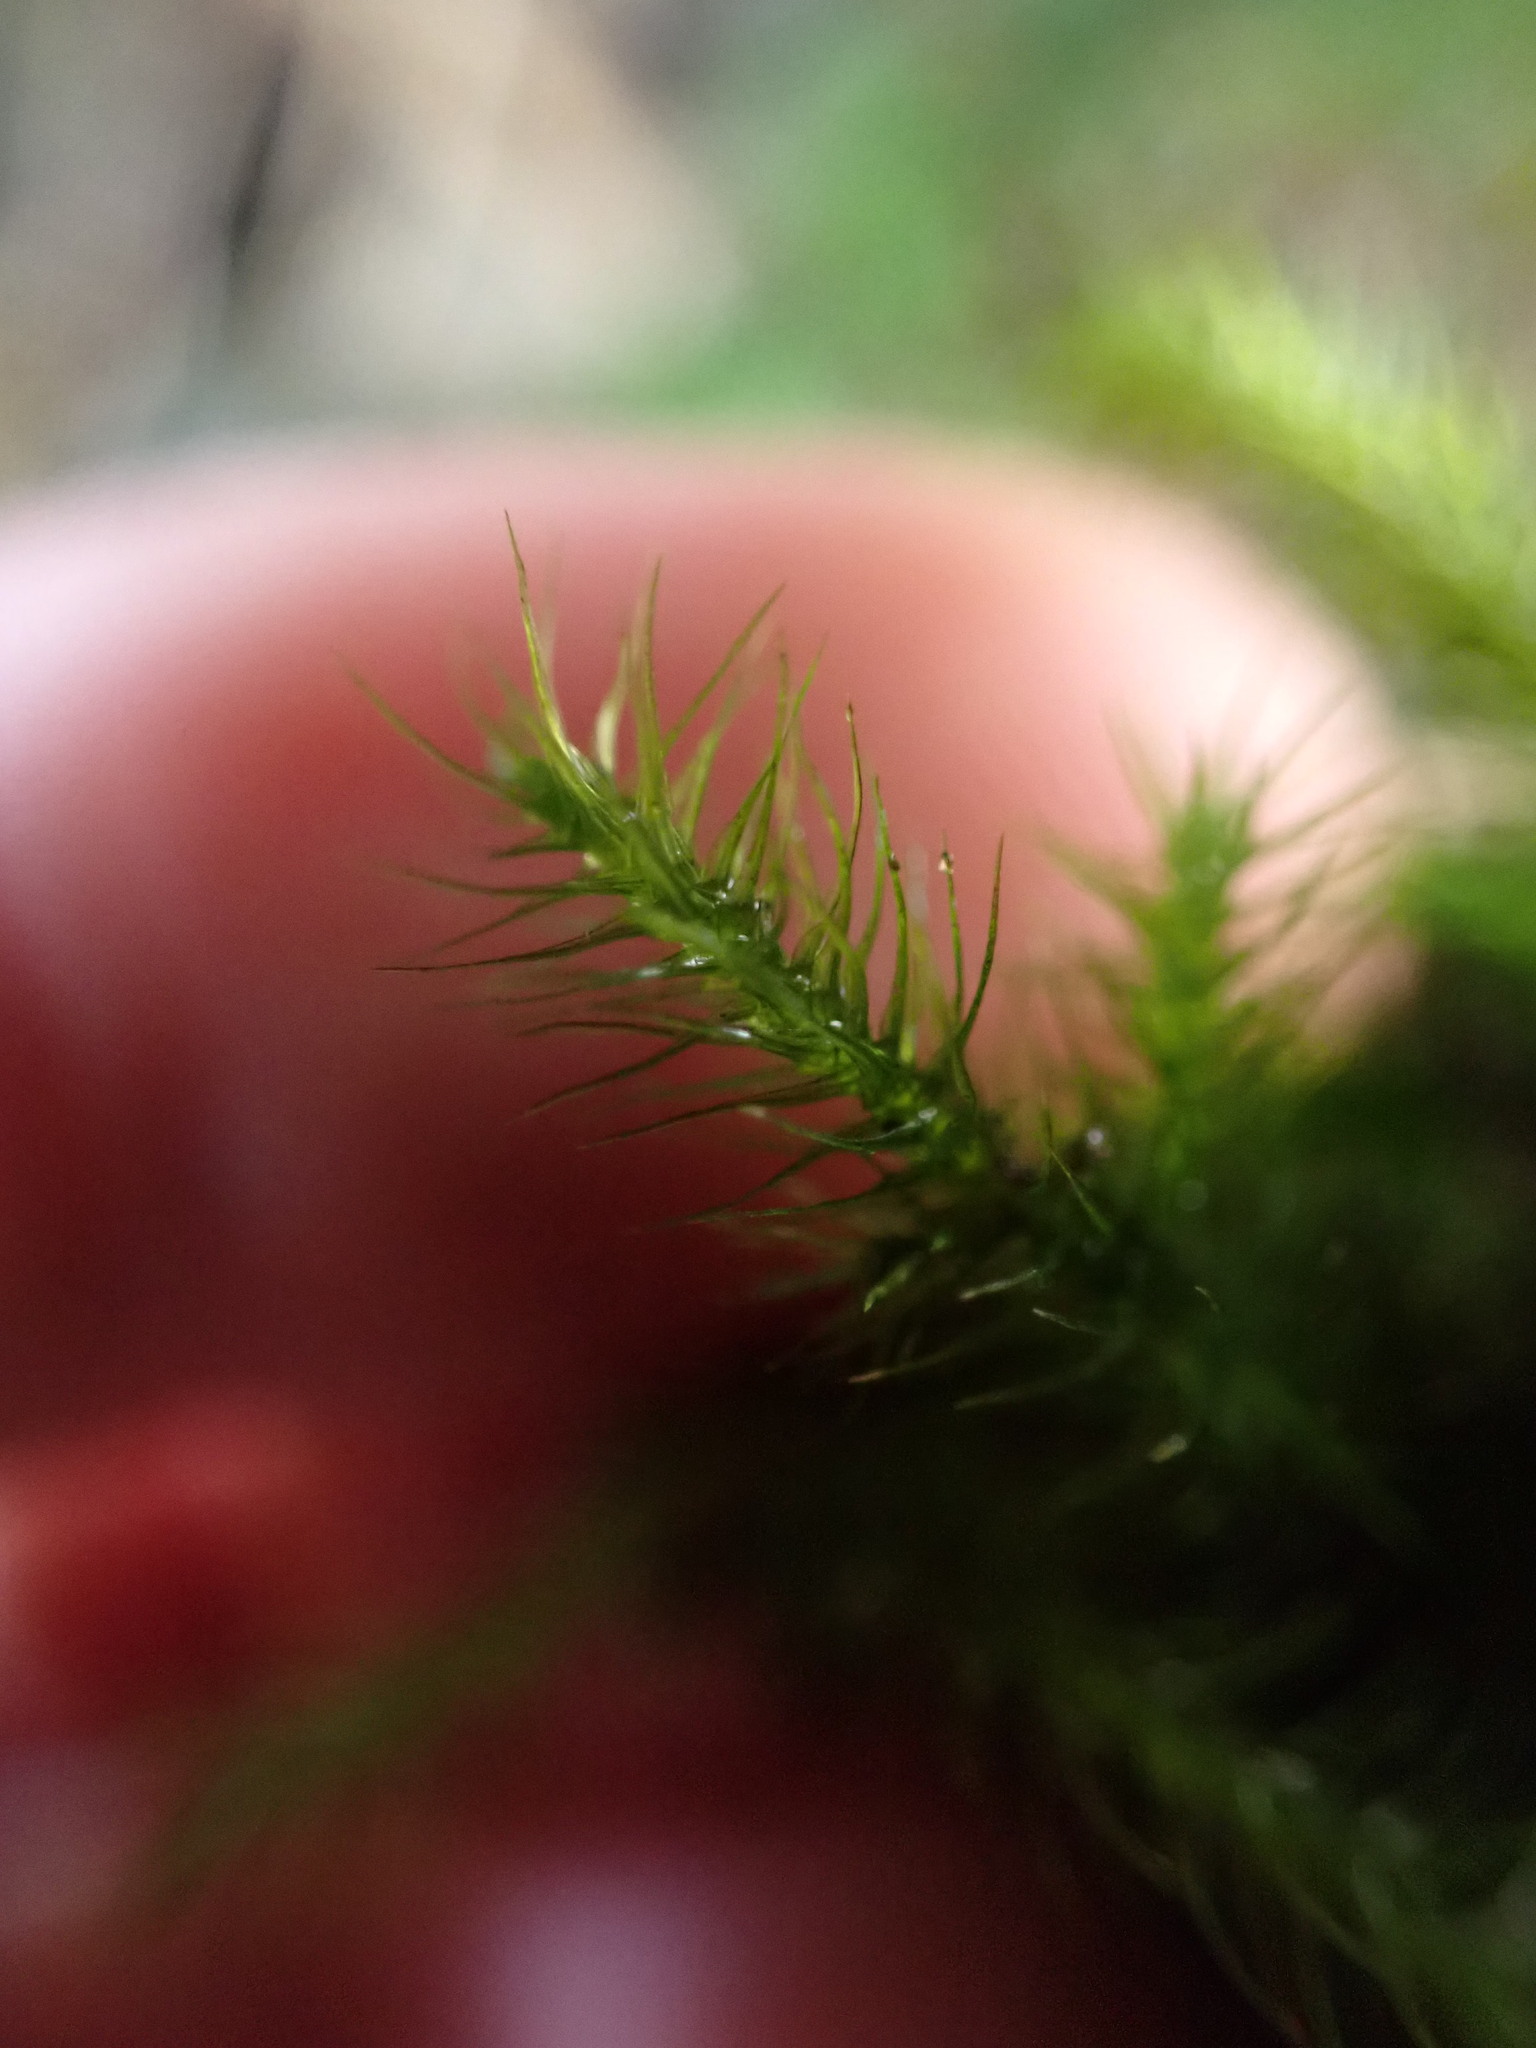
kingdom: Plantae
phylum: Bryophyta
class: Bryopsida
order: Hypnales
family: Neckeraceae
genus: Echinodiopsis
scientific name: Echinodiopsis hispida
